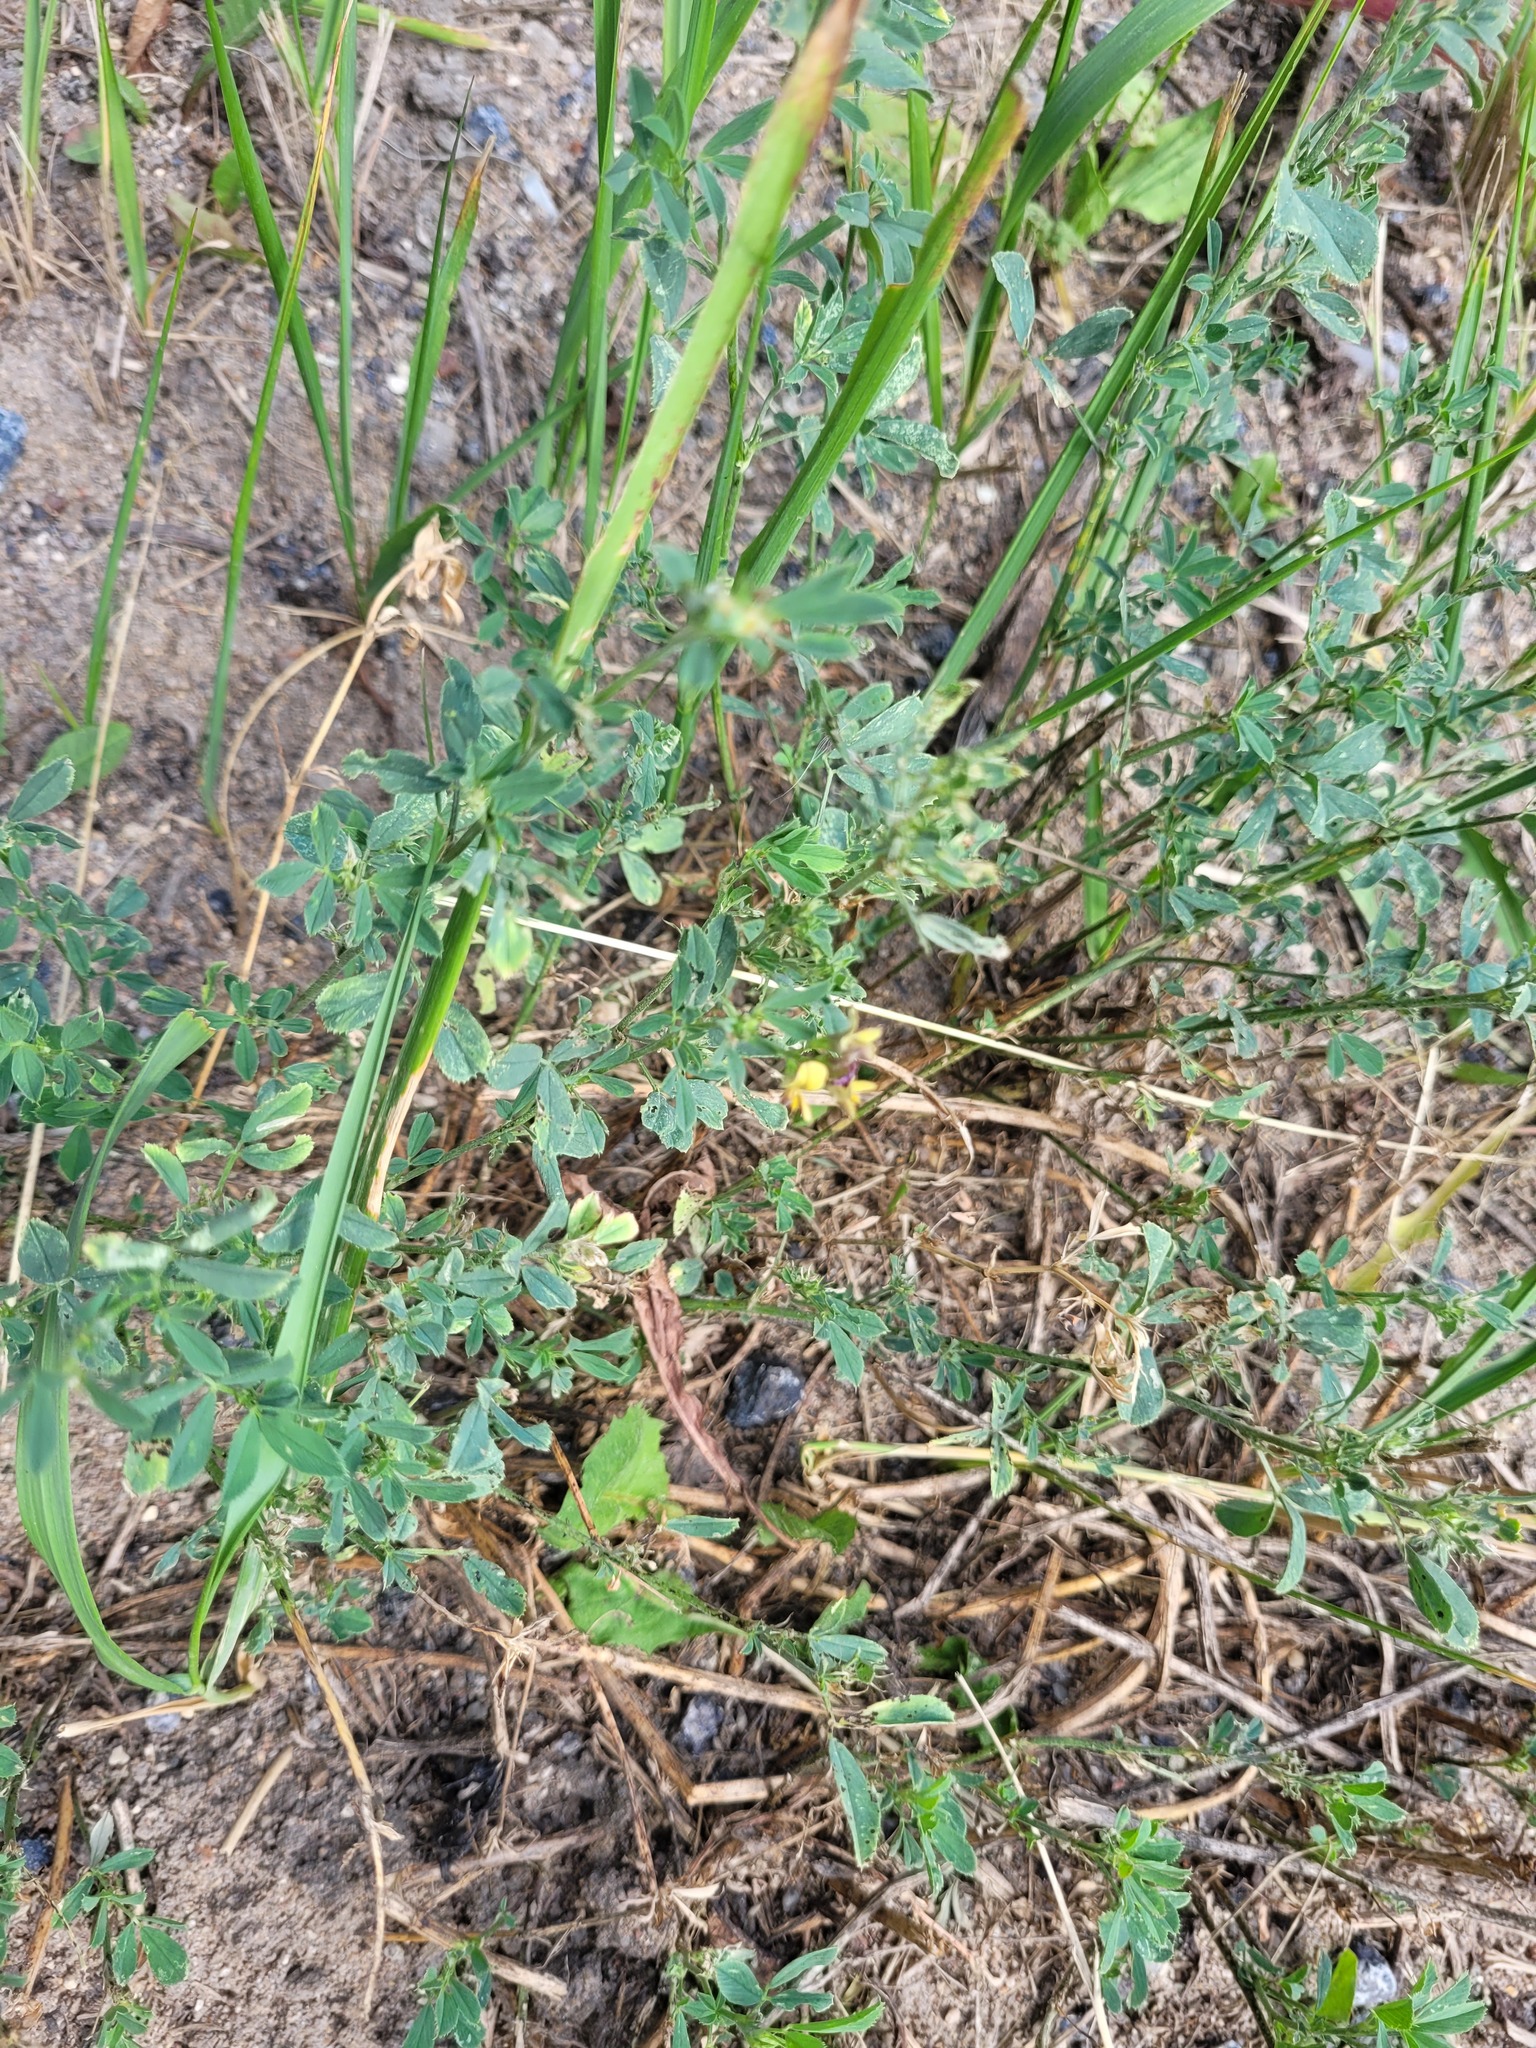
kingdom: Plantae
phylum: Tracheophyta
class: Magnoliopsida
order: Fabales
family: Fabaceae
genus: Medicago
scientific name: Medicago varia
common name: Sand lucerne
